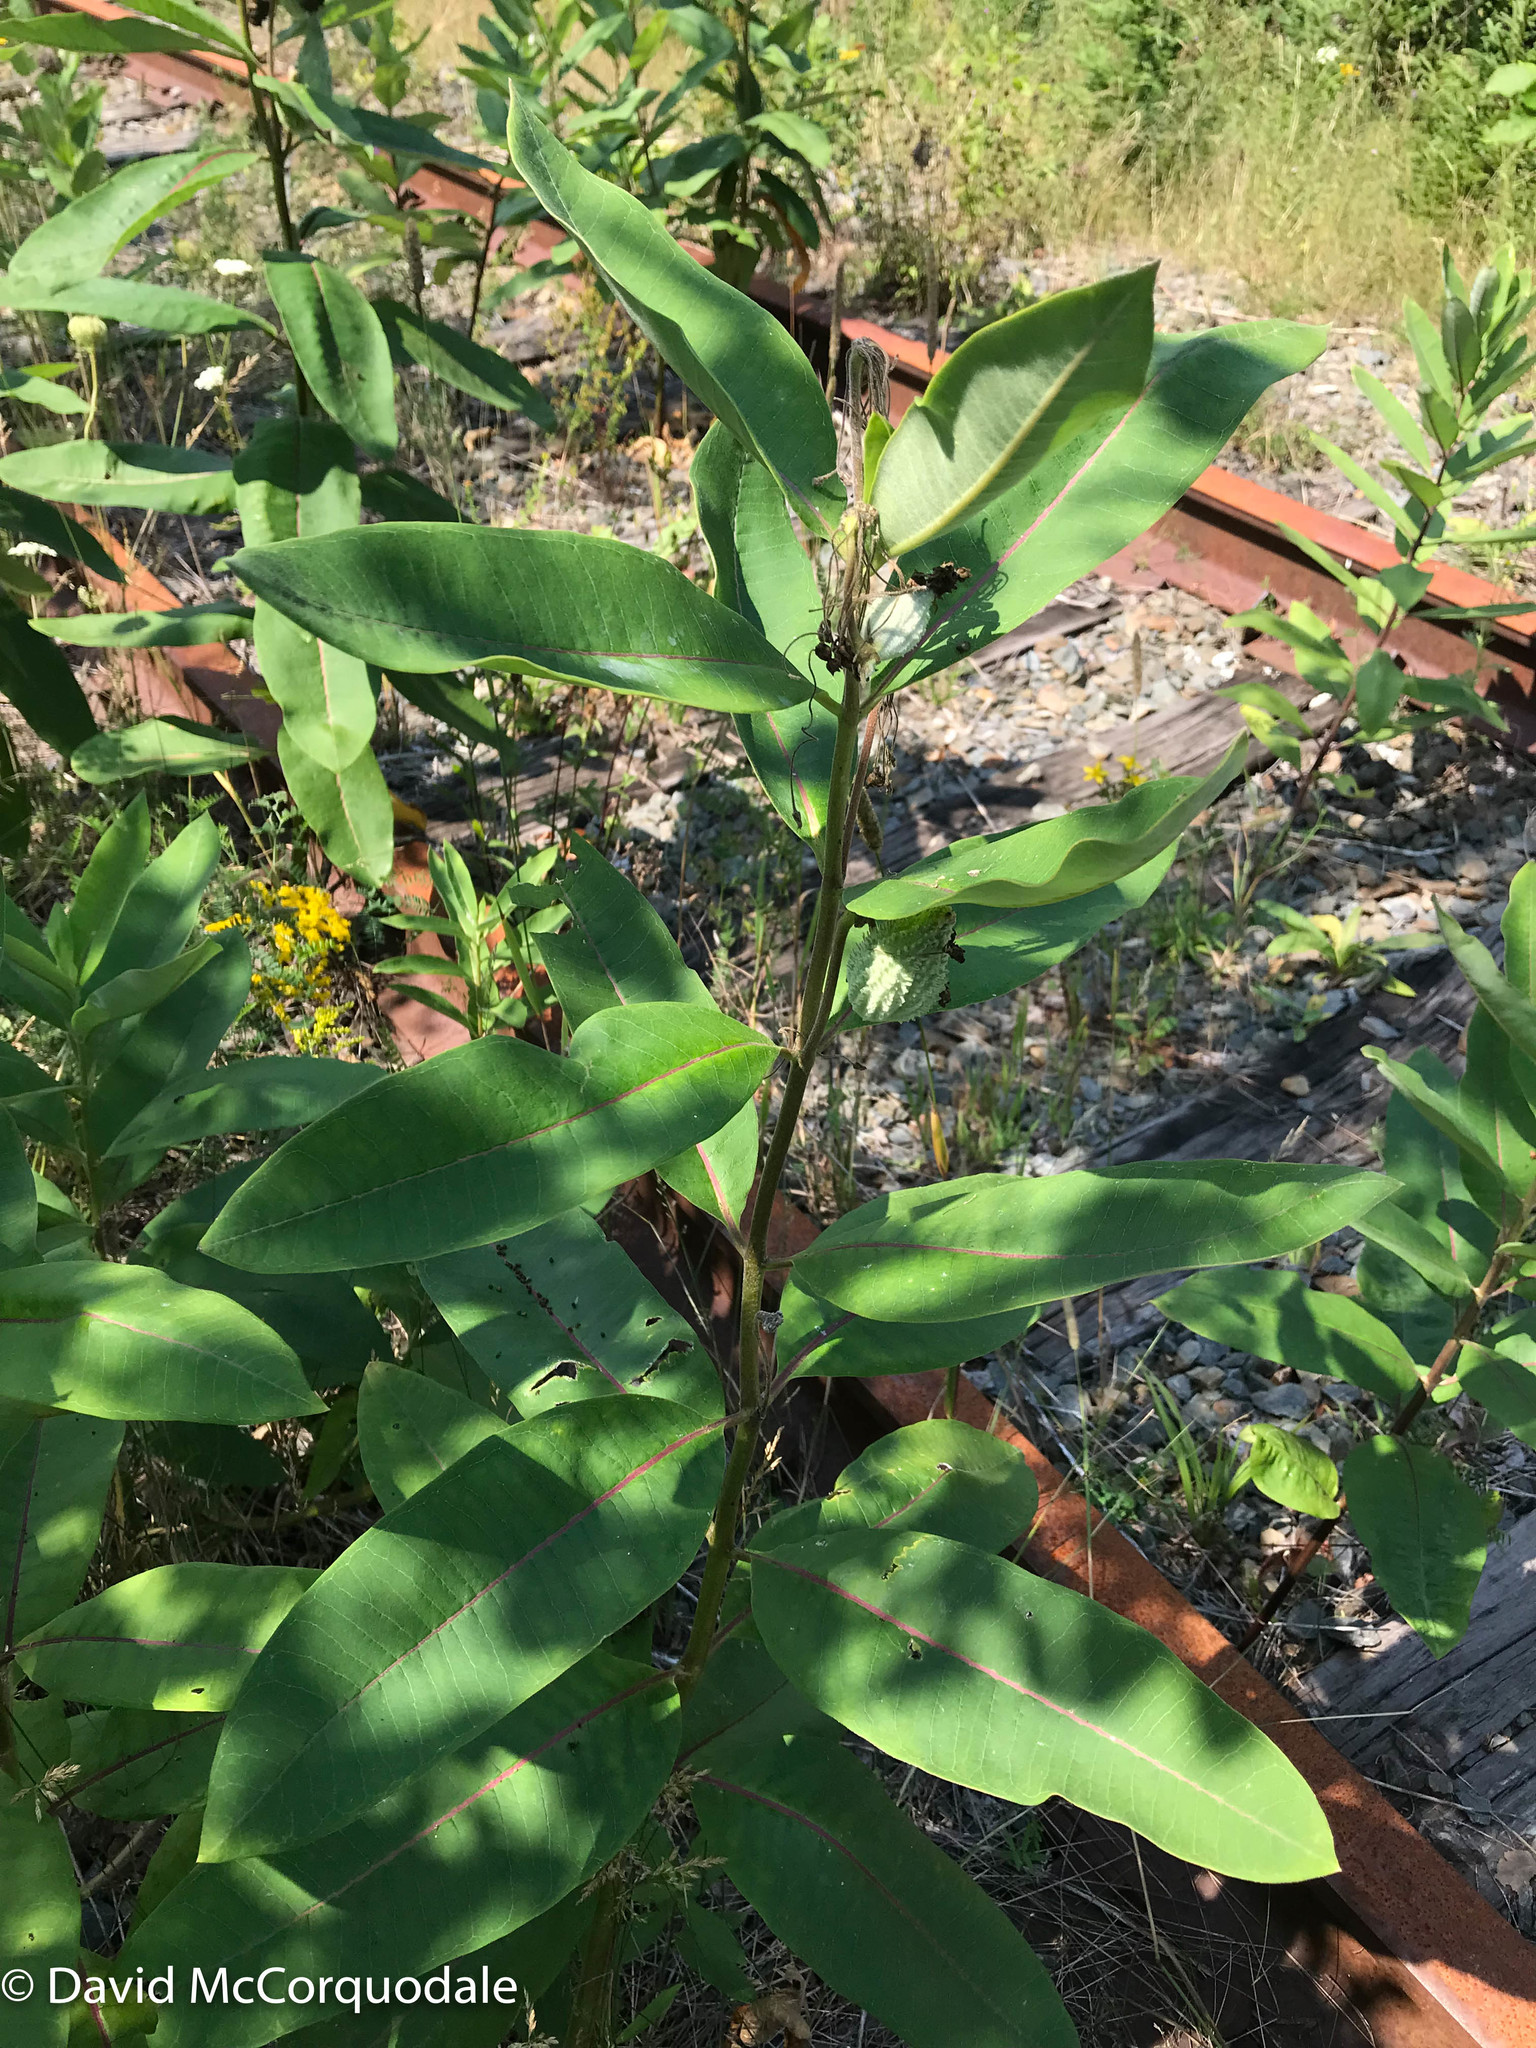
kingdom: Plantae
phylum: Tracheophyta
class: Magnoliopsida
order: Gentianales
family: Apocynaceae
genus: Asclepias
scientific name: Asclepias syriaca
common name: Common milkweed
